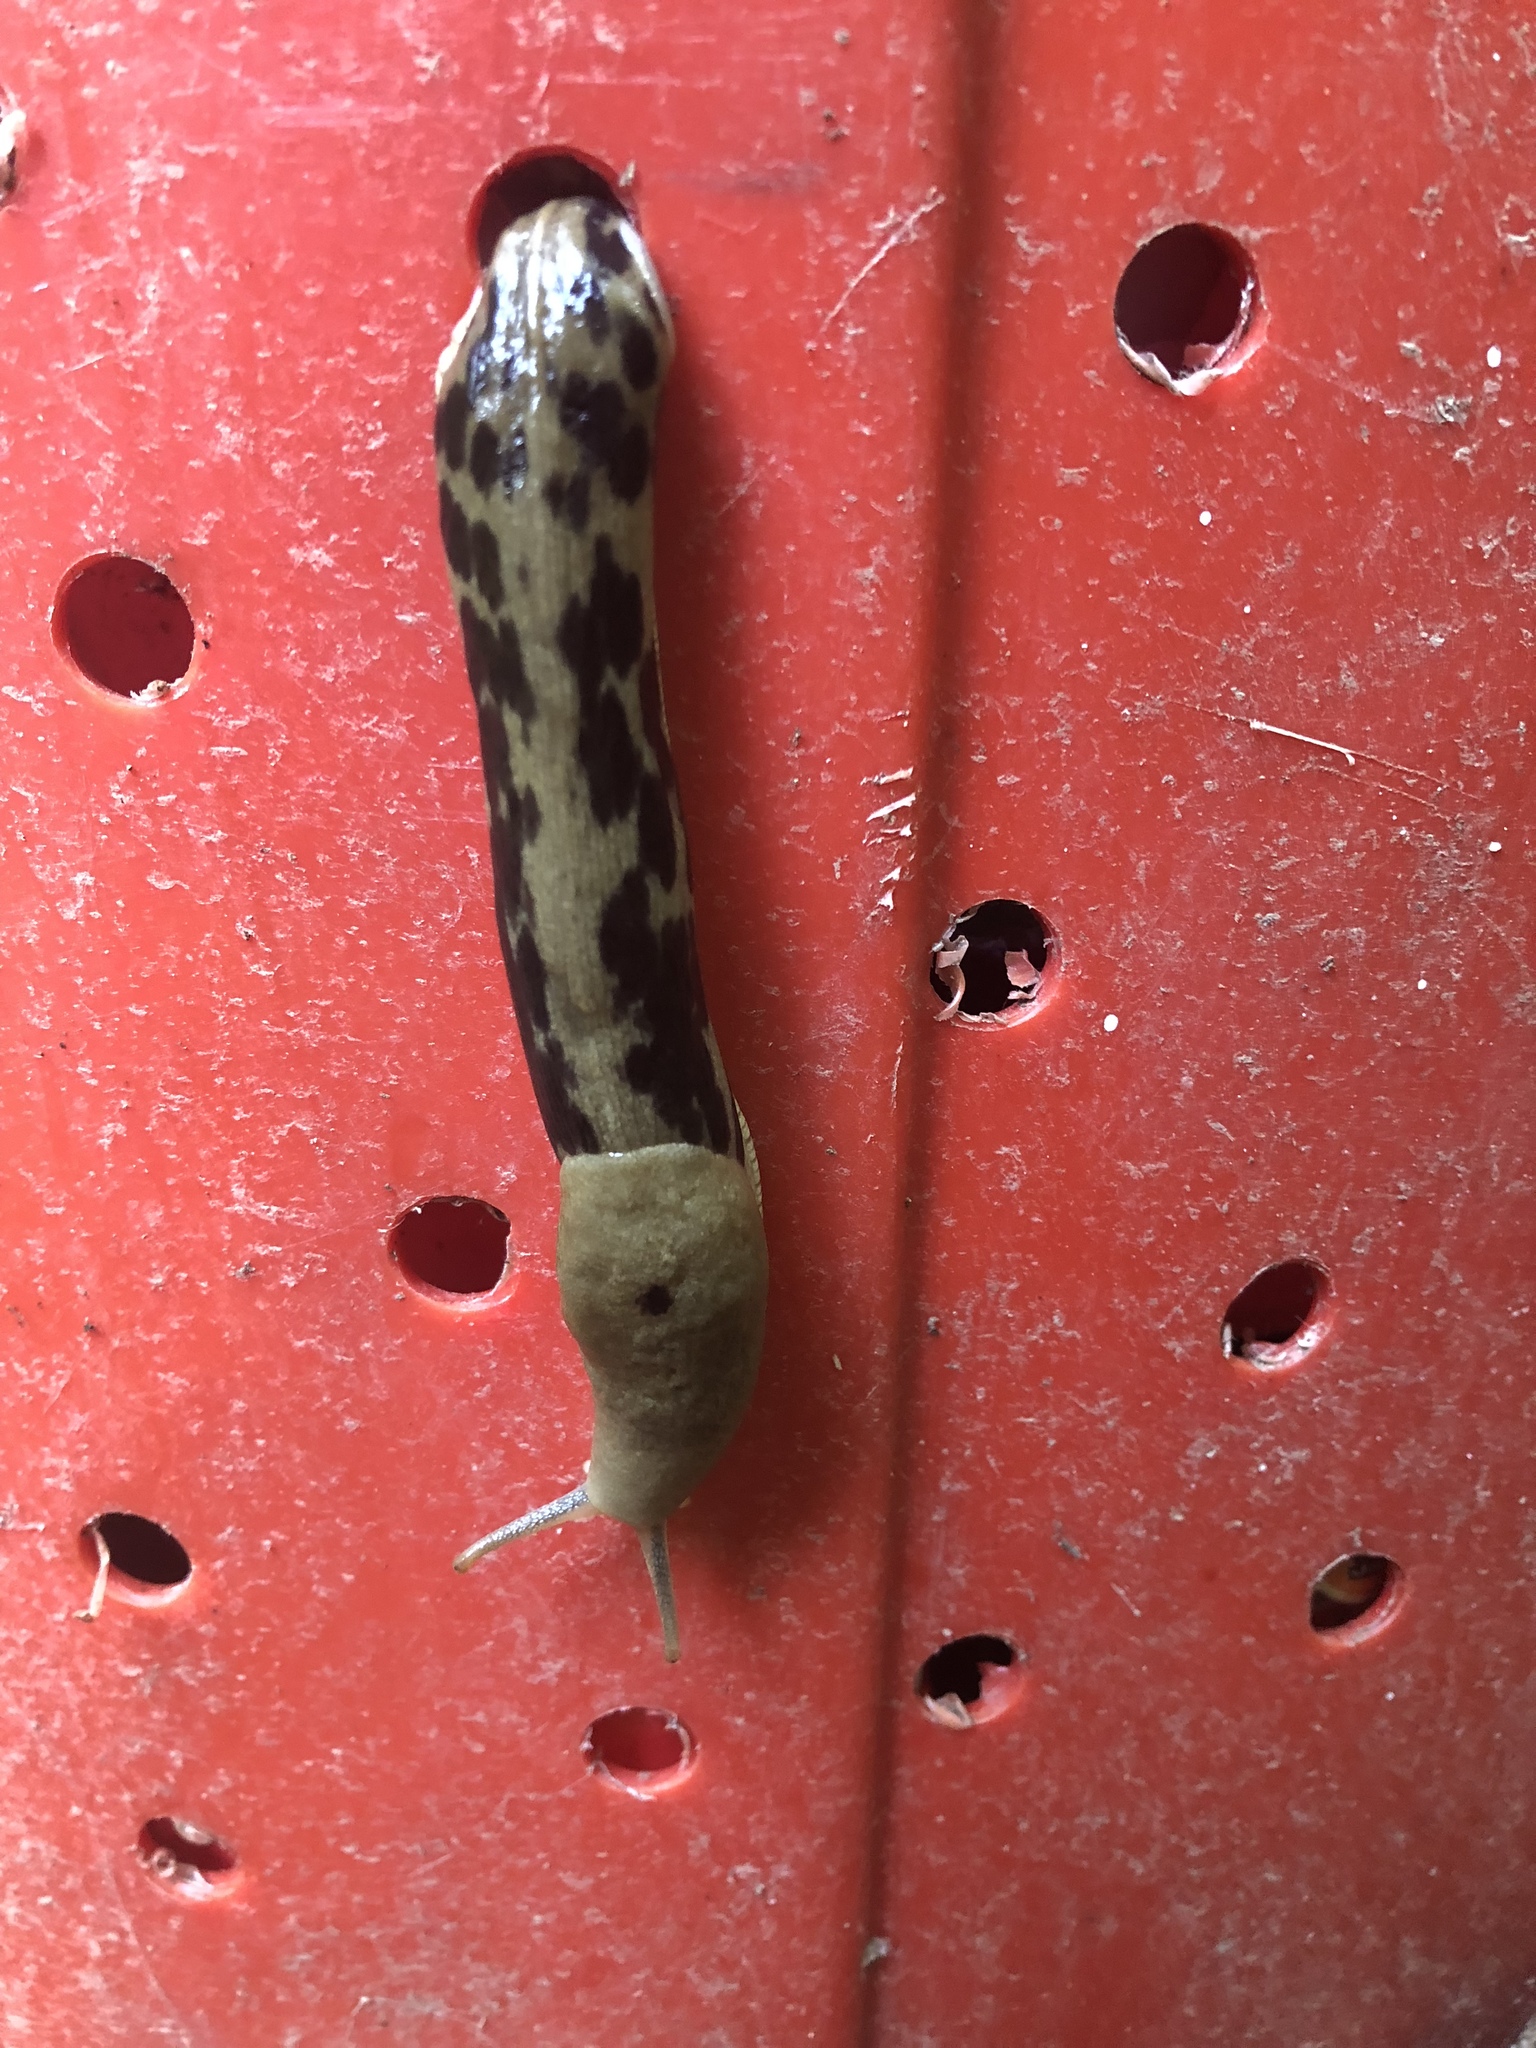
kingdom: Animalia
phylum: Mollusca
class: Gastropoda
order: Stylommatophora
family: Ariolimacidae
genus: Ariolimax
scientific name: Ariolimax columbianus
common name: Pacific banana slug
